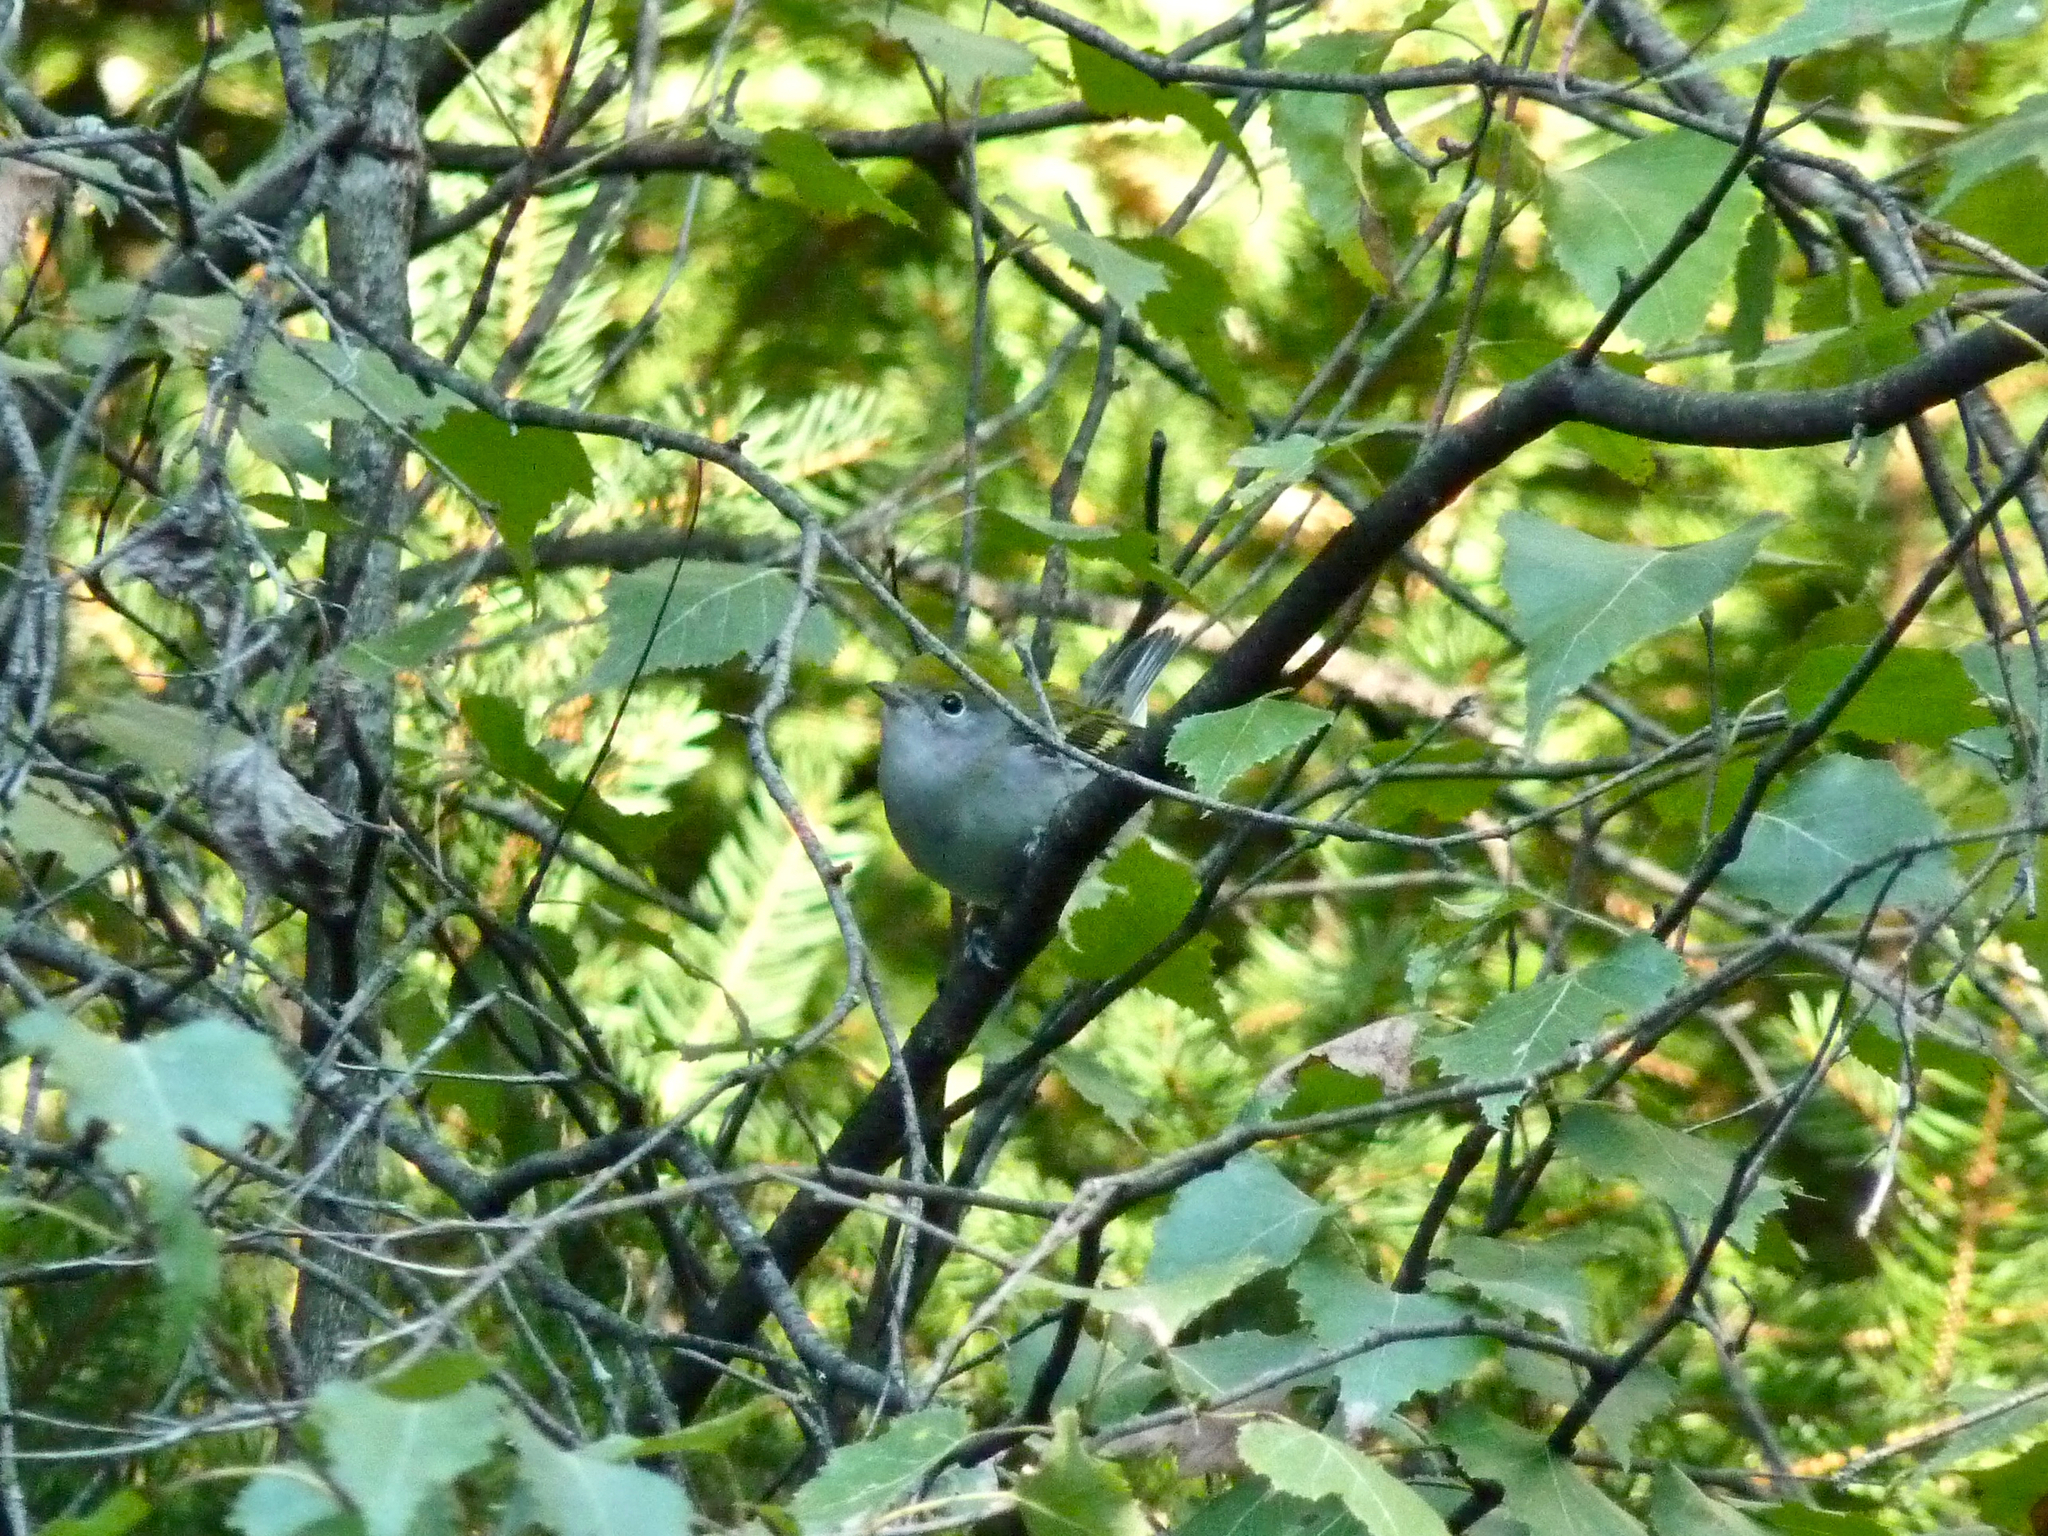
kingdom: Animalia
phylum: Chordata
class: Aves
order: Passeriformes
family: Parulidae
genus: Setophaga
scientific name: Setophaga pensylvanica
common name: Chestnut-sided warbler
